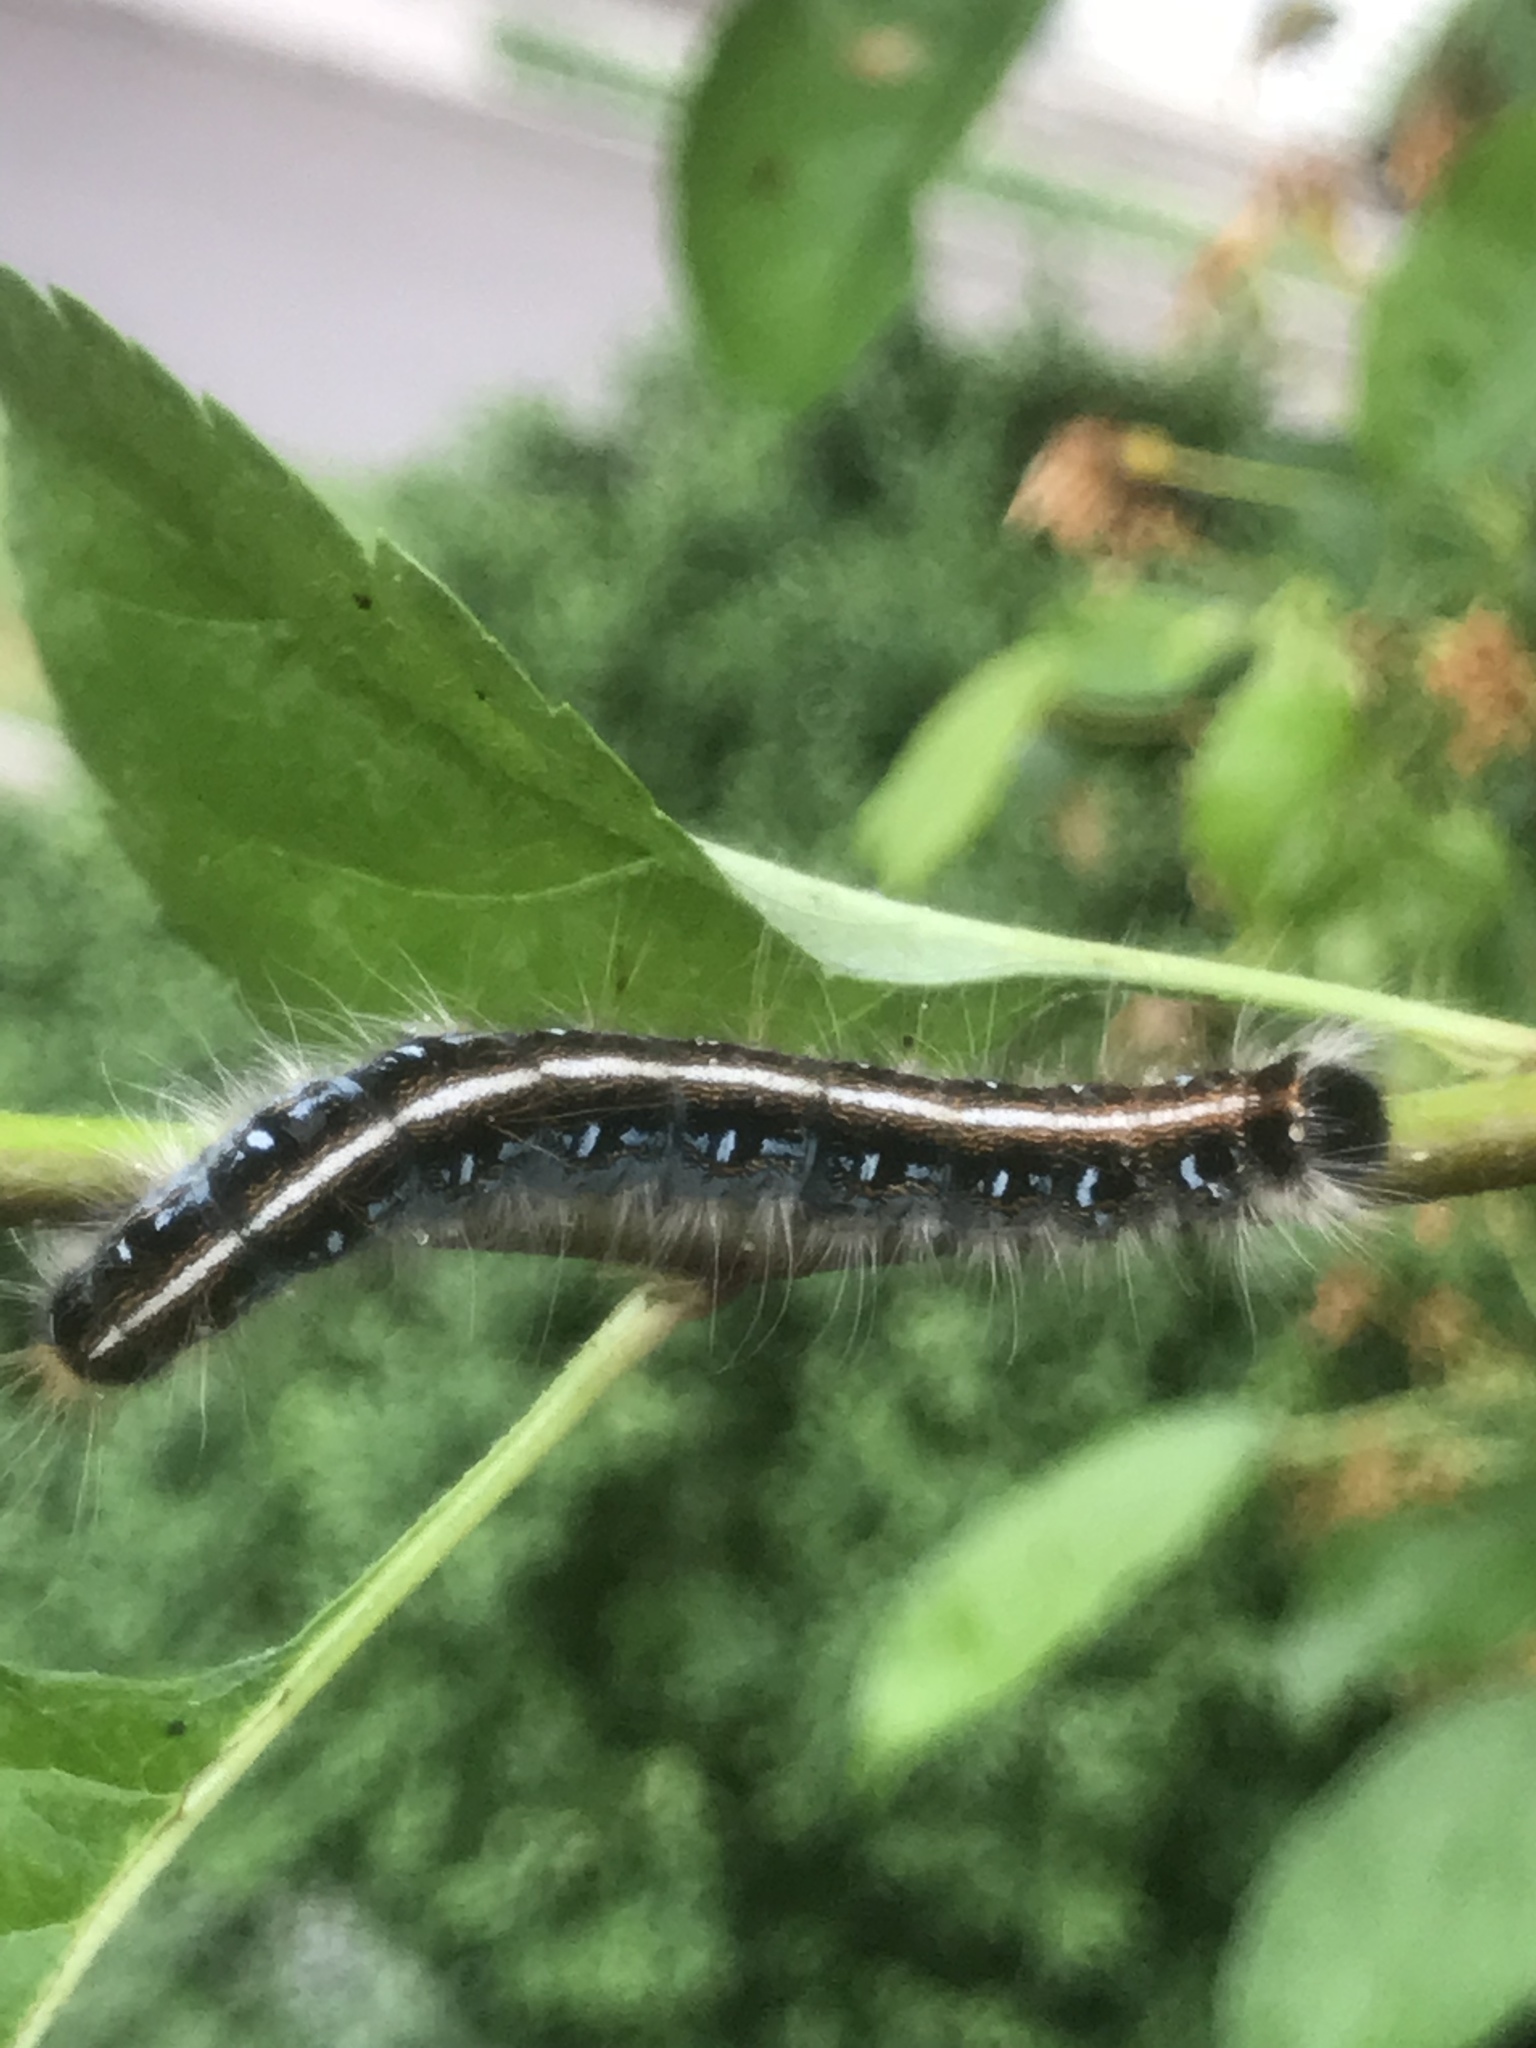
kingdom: Animalia
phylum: Arthropoda
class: Insecta
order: Lepidoptera
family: Lasiocampidae
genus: Malacosoma
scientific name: Malacosoma americana
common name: Eastern tent caterpillar moth
